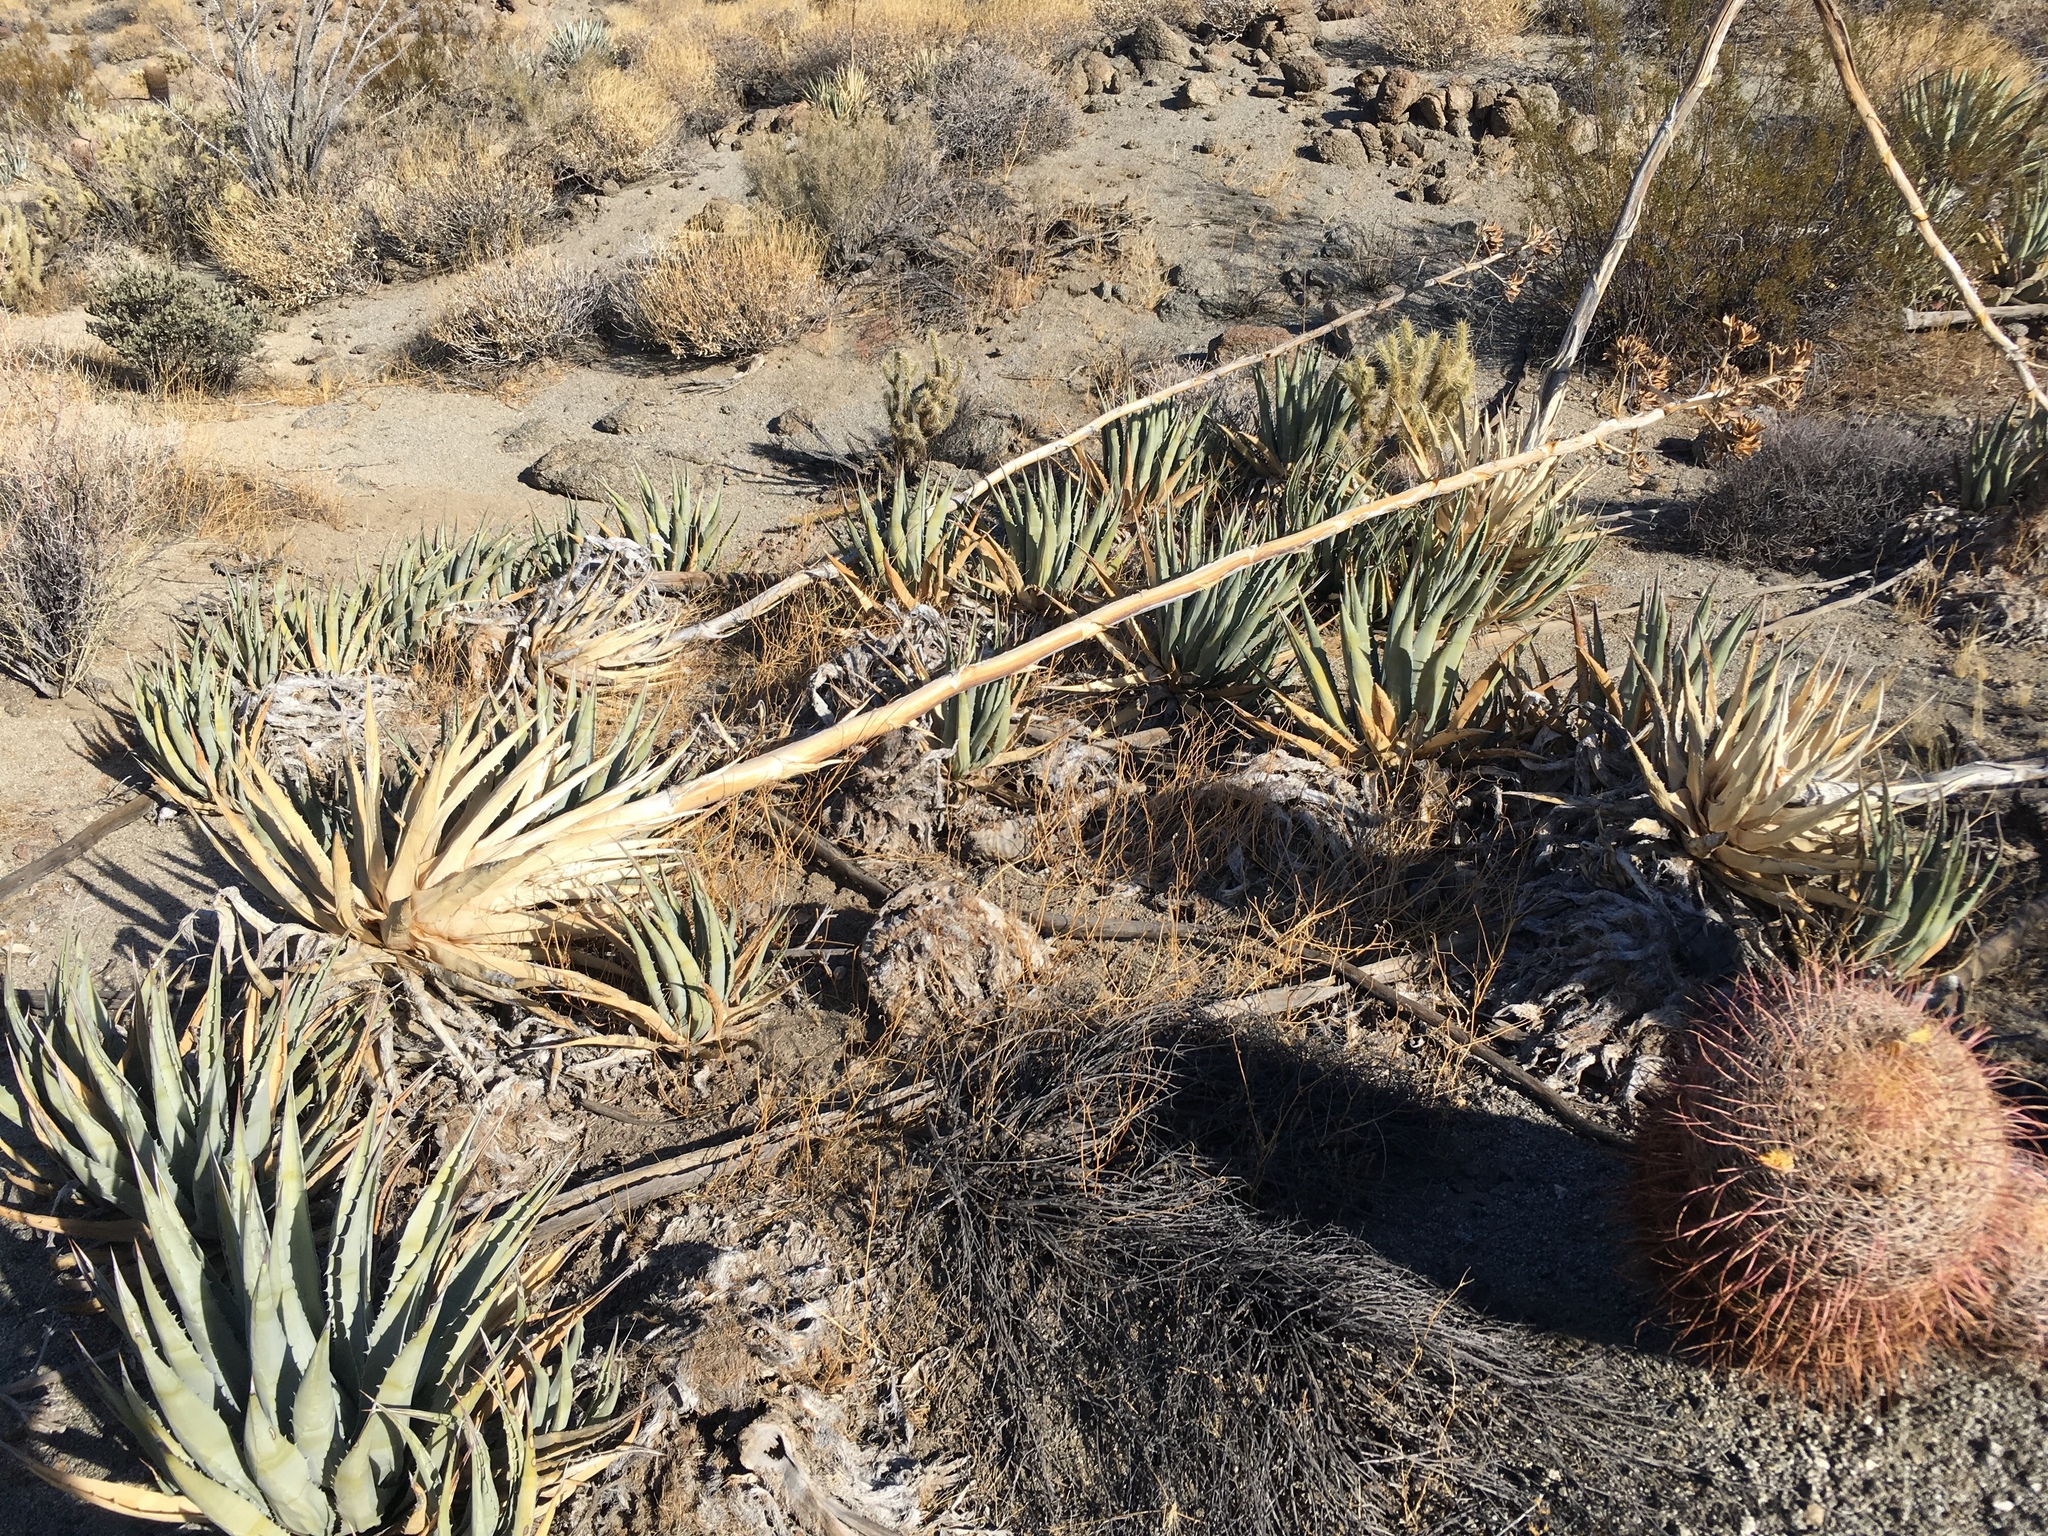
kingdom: Plantae
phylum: Tracheophyta
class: Liliopsida
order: Asparagales
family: Asparagaceae
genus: Agave
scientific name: Agave deserti
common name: Desert agave
